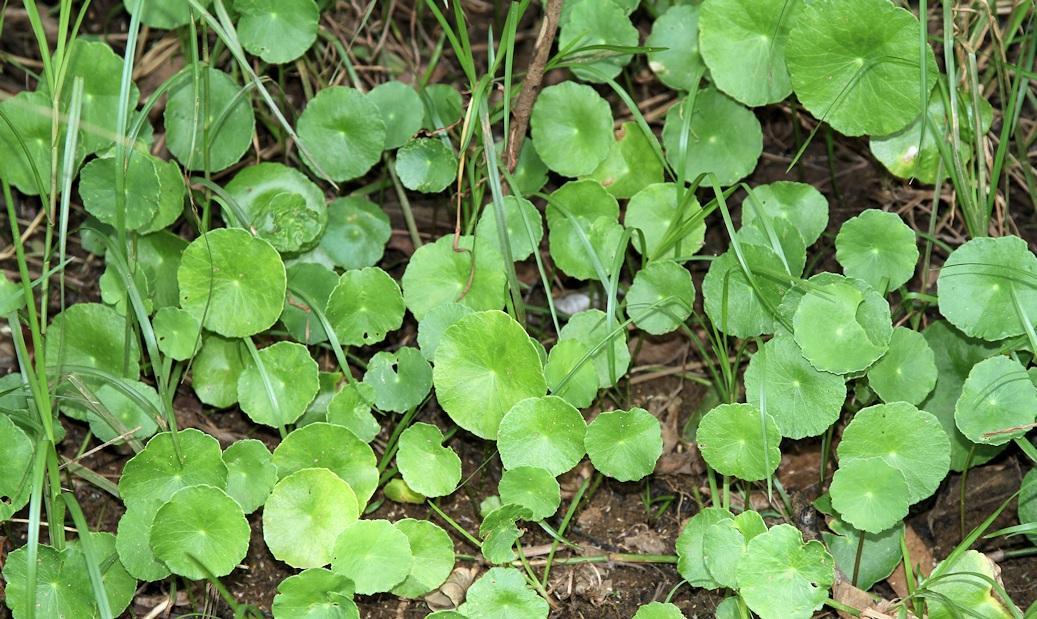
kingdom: Plantae
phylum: Tracheophyta
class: Magnoliopsida
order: Apiales
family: Araliaceae
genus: Hydrocotyle
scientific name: Hydrocotyle verticillata
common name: Whorled marshpennywort
